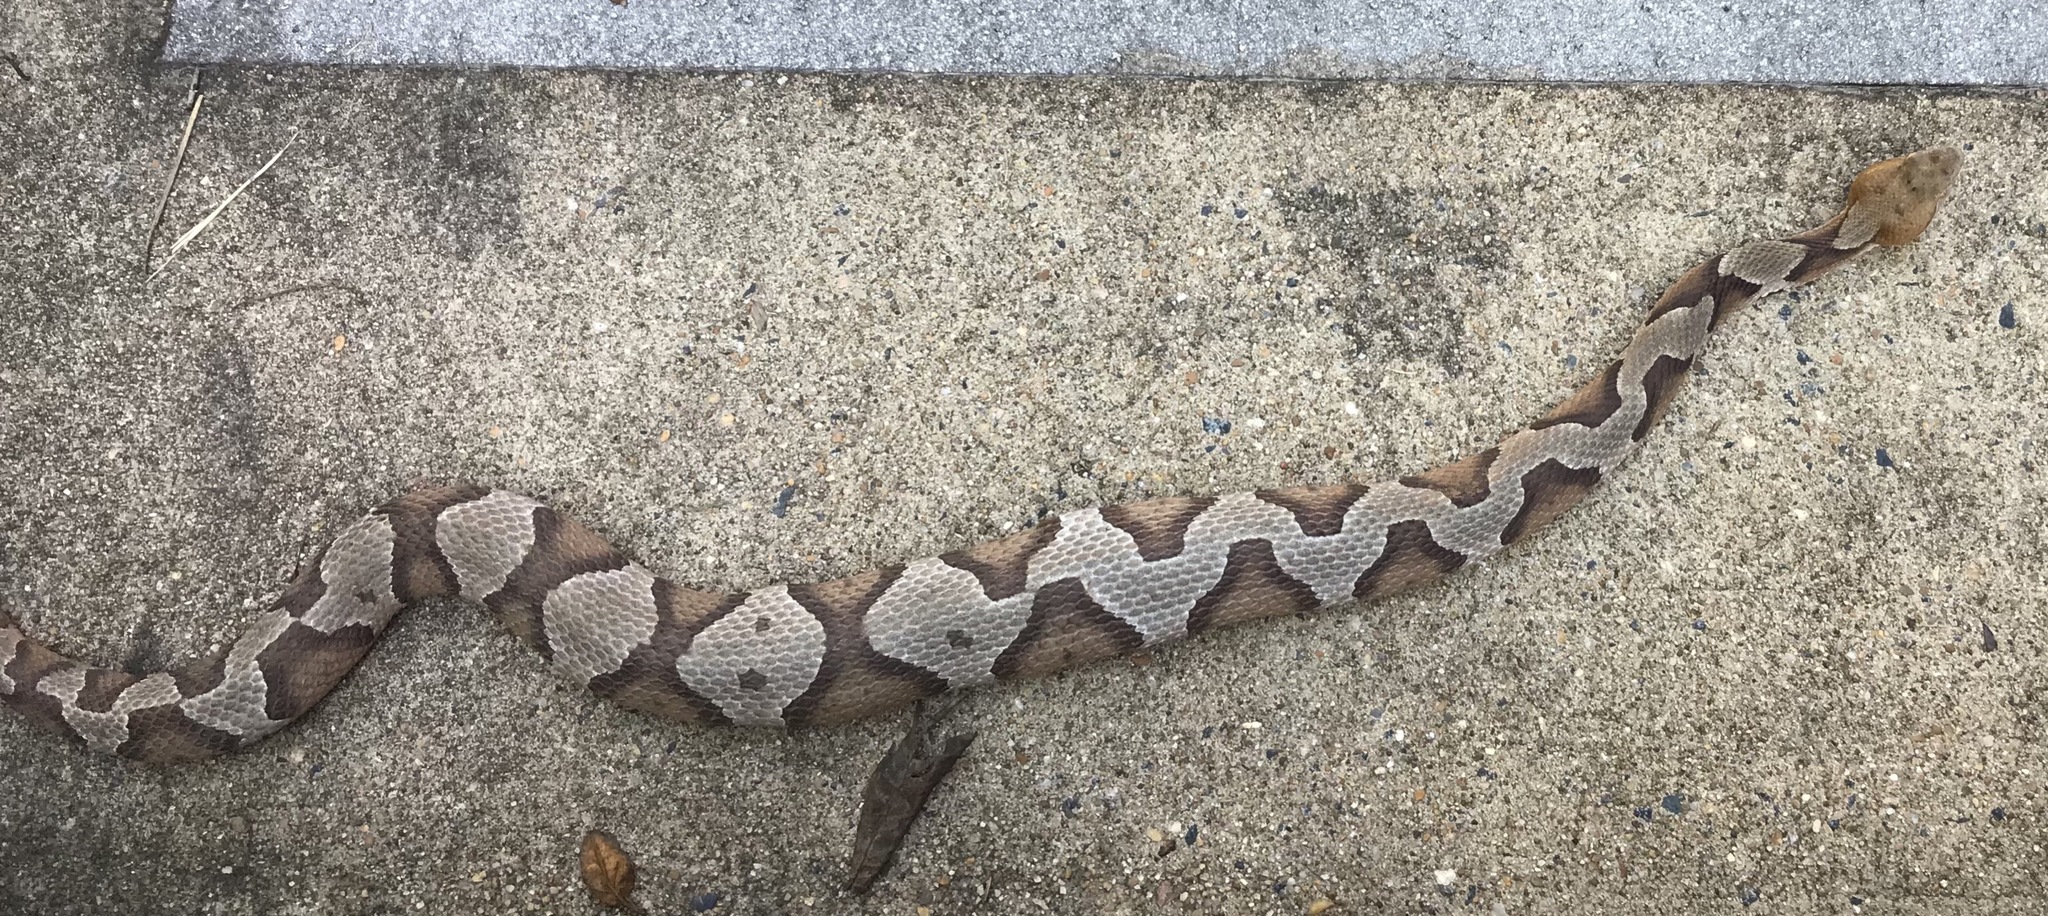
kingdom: Animalia
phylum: Chordata
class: Squamata
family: Viperidae
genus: Agkistrodon
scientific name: Agkistrodon contortrix
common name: Northern copperhead
